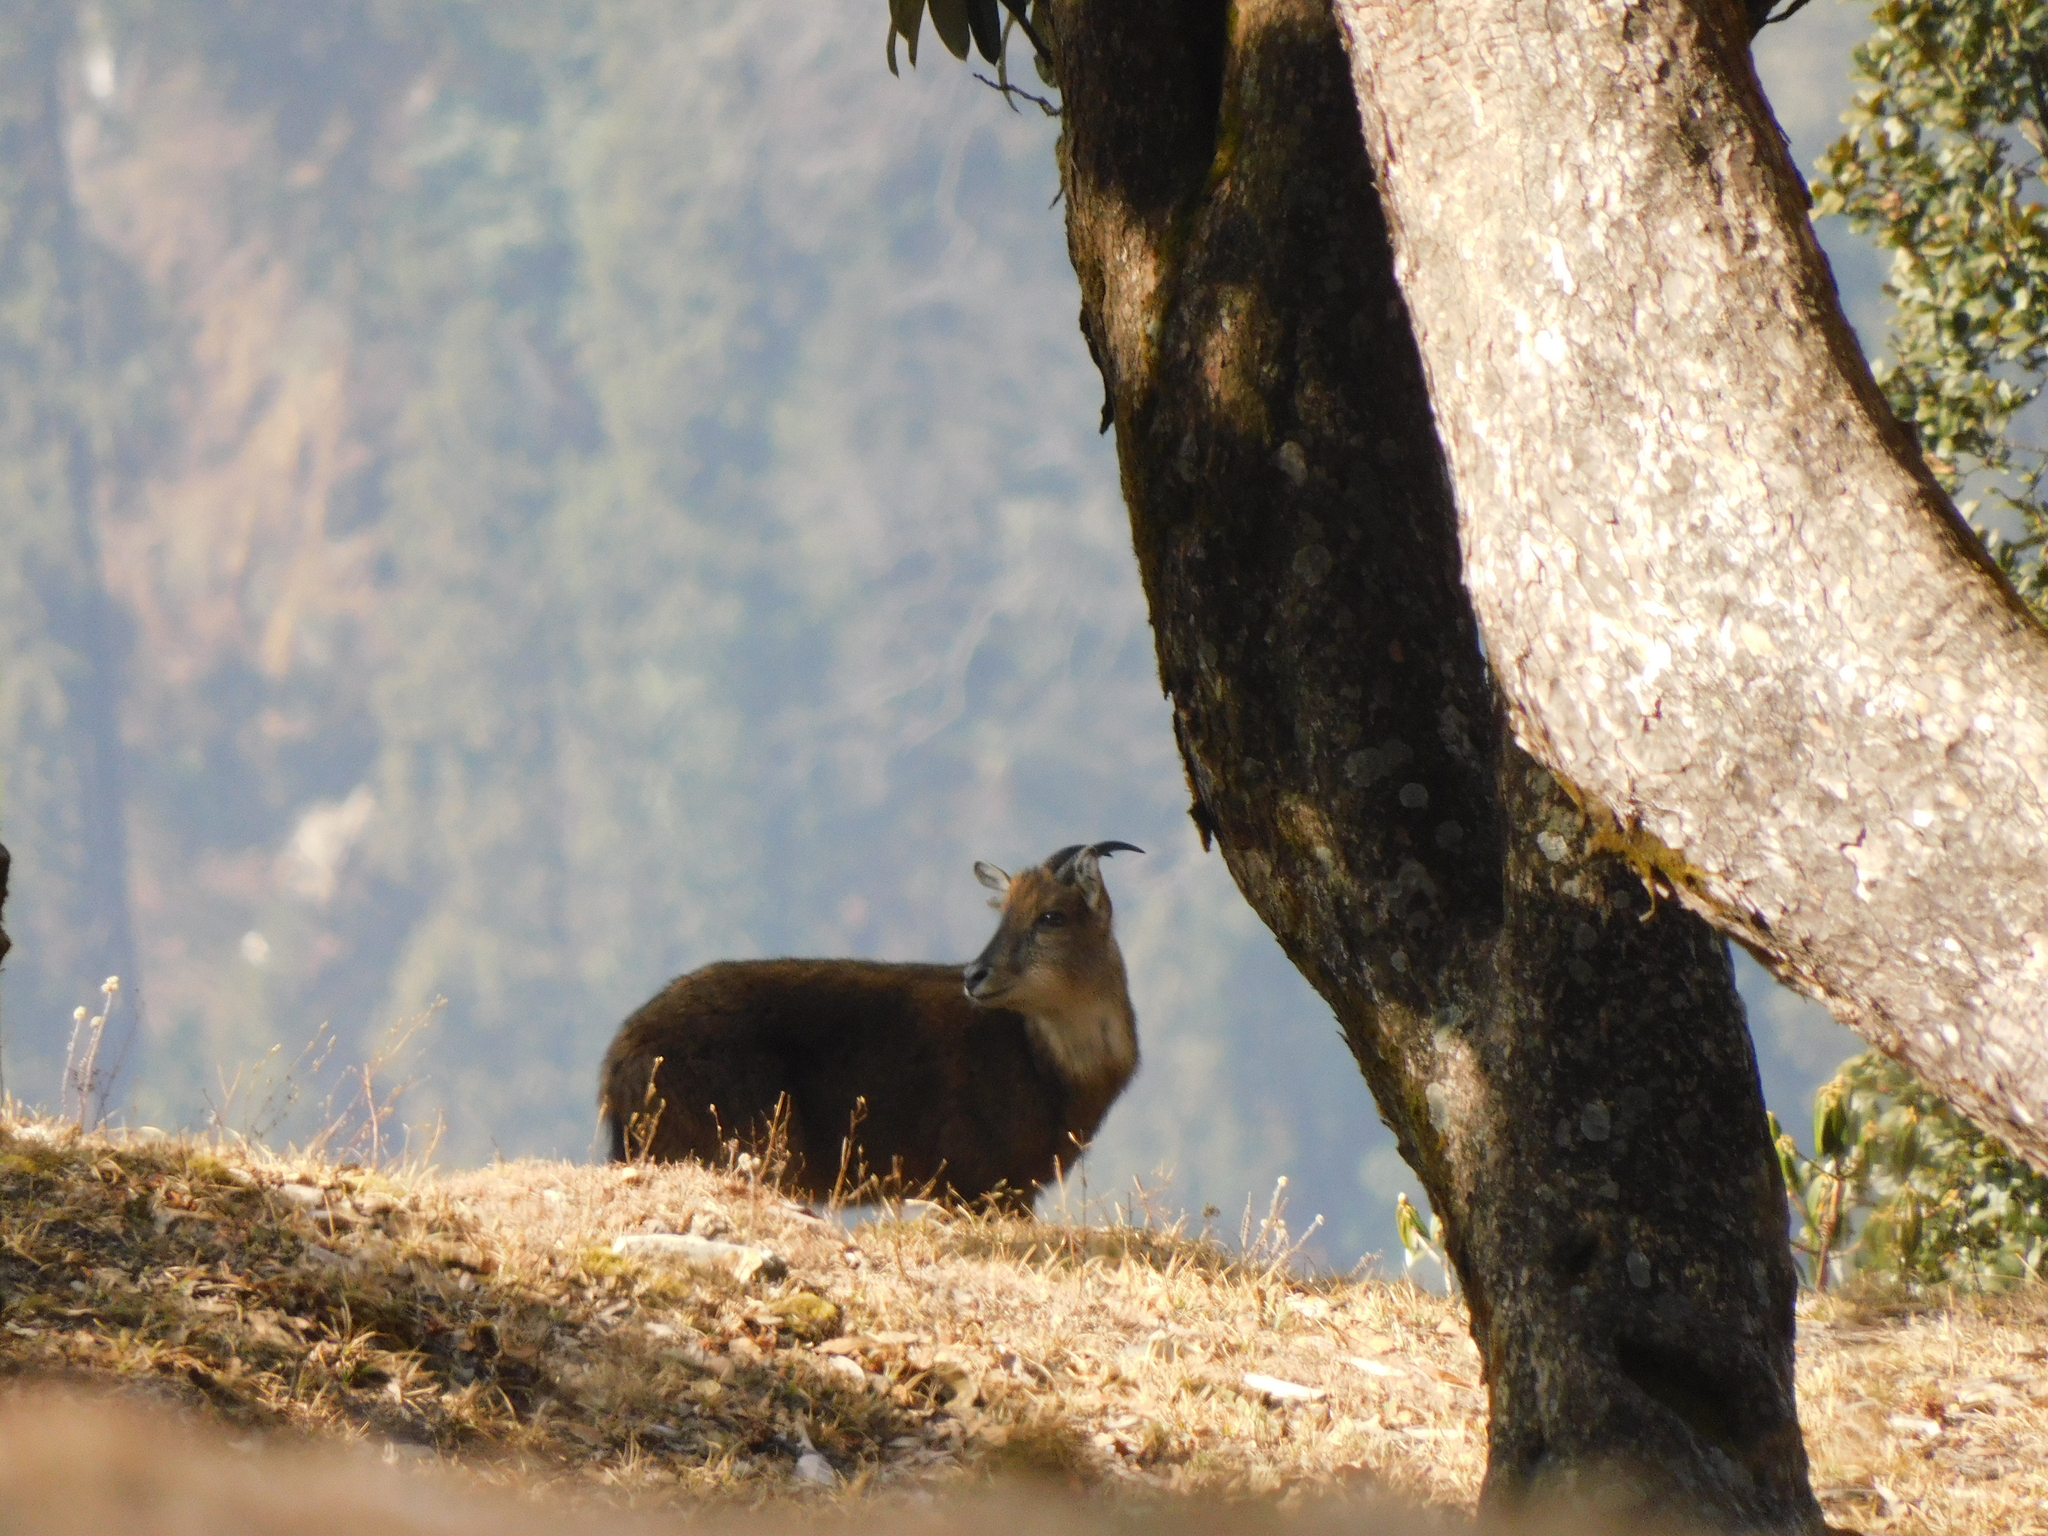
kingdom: Animalia
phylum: Chordata
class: Mammalia
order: Artiodactyla
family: Bovidae
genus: Naemorhedus
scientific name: Naemorhedus goral
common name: Goral
